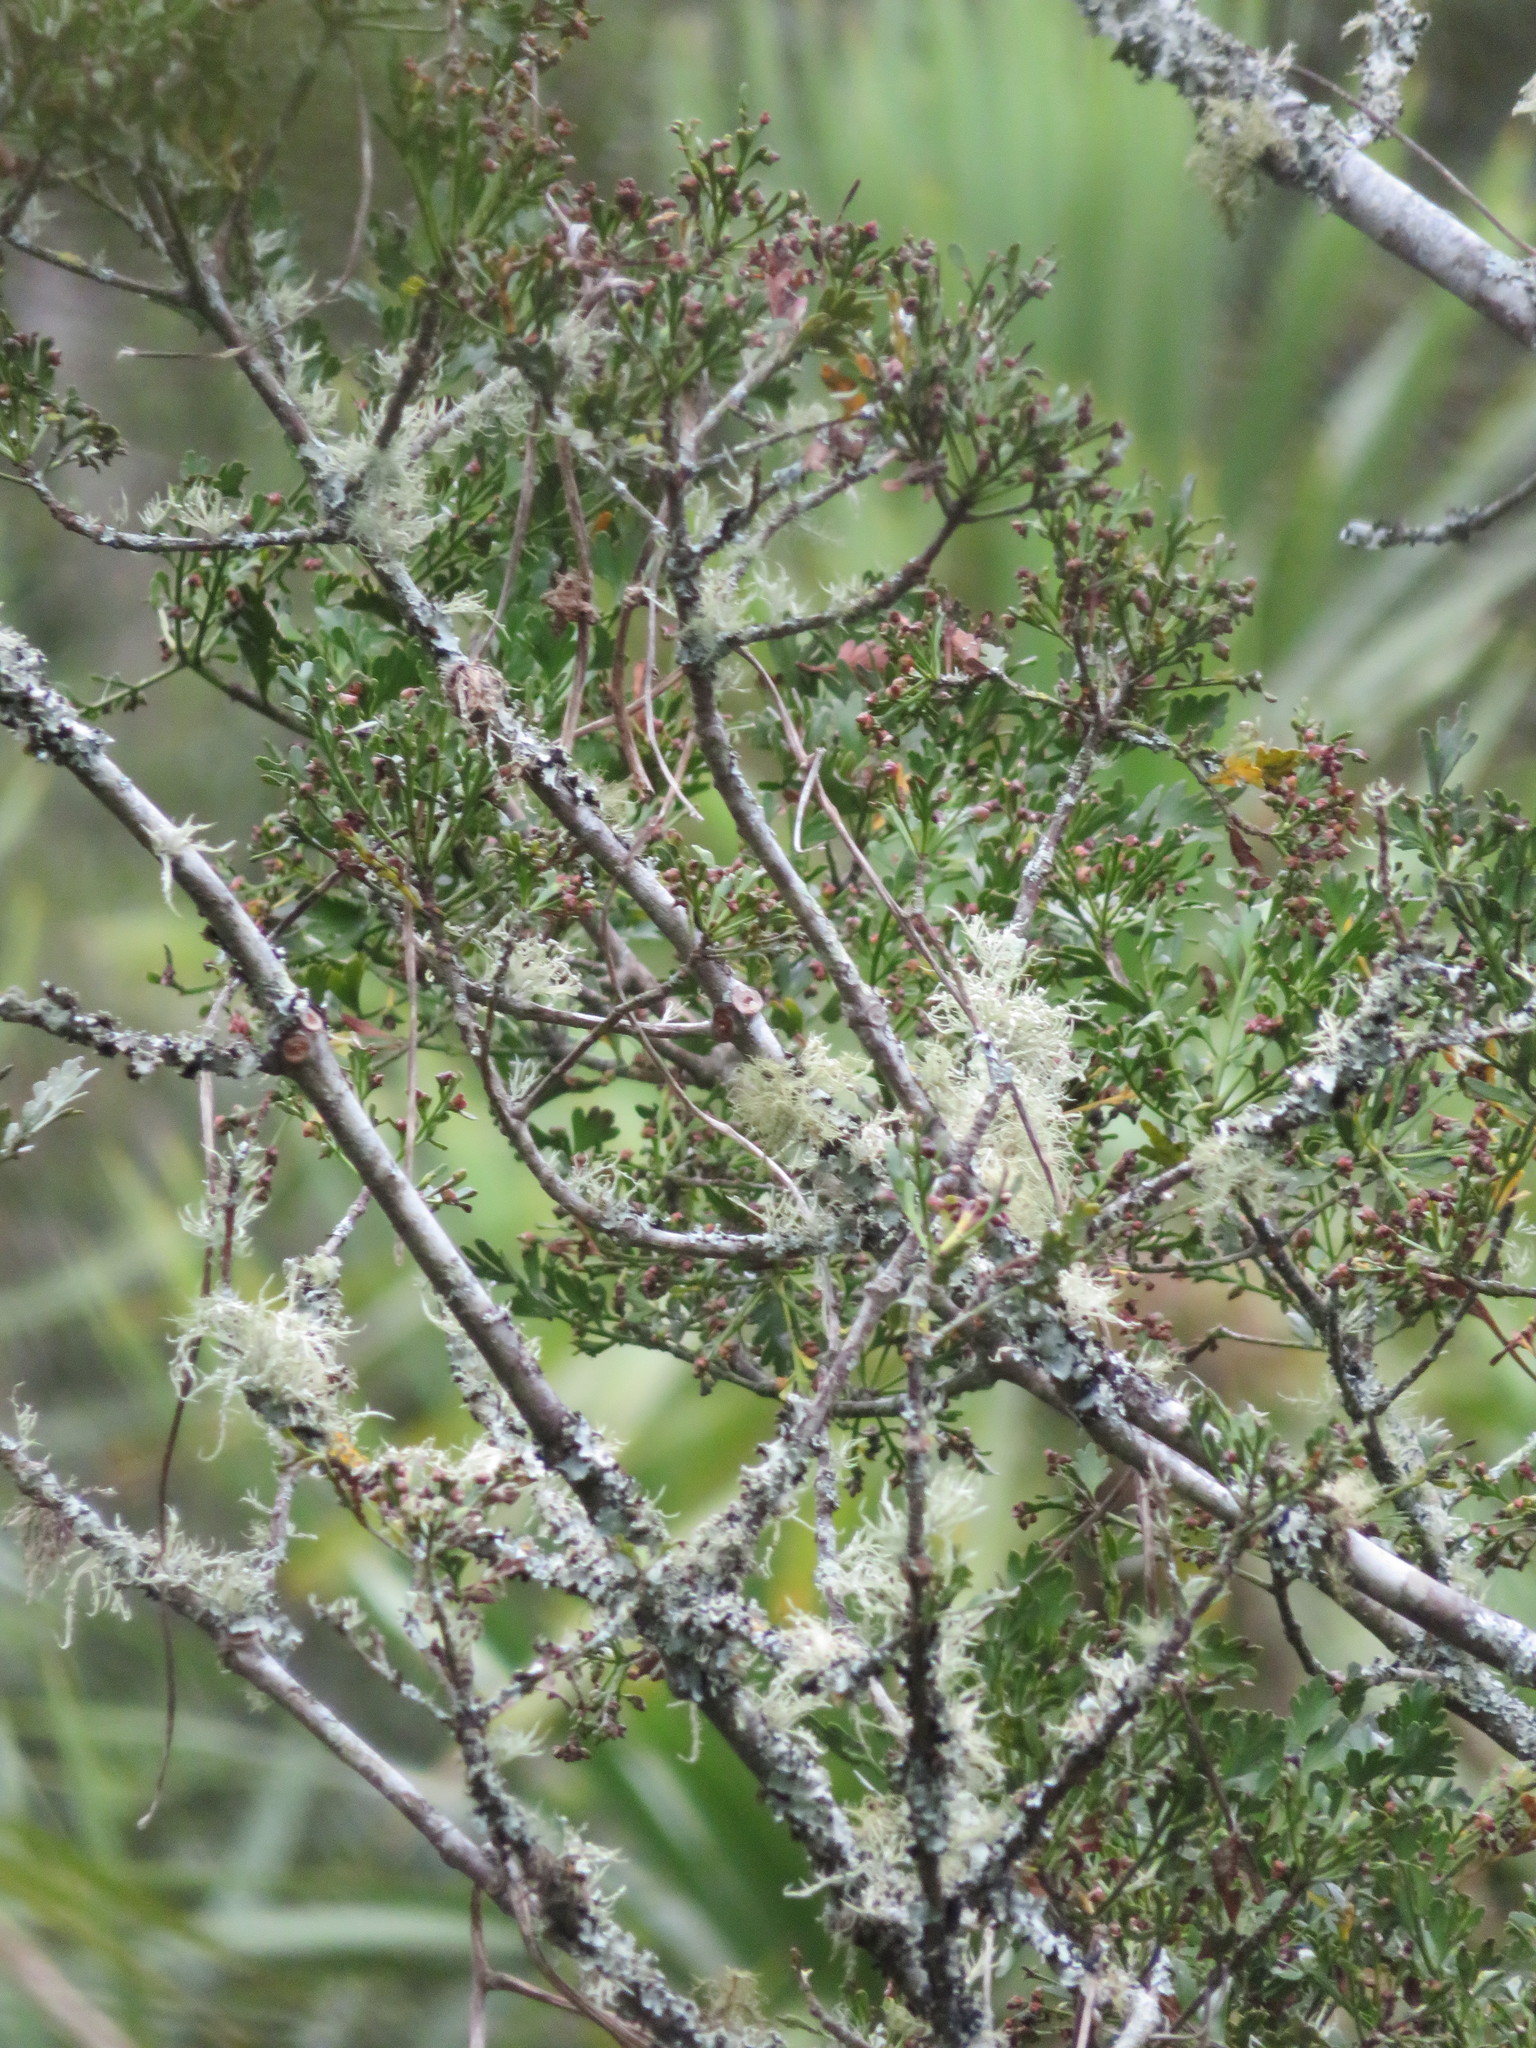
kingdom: Plantae
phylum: Tracheophyta
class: Pinopsida
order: Pinales
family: Phyllocladaceae
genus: Phyllocladus
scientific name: Phyllocladus trichomanoides
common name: Celery pine
